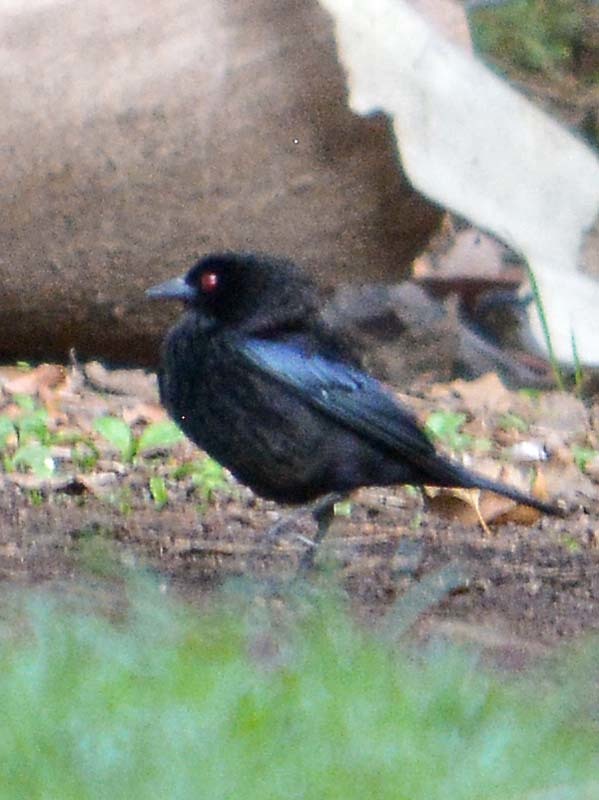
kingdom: Animalia
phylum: Chordata
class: Aves
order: Passeriformes
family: Icteridae
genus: Molothrus
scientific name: Molothrus aeneus
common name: Bronzed cowbird
